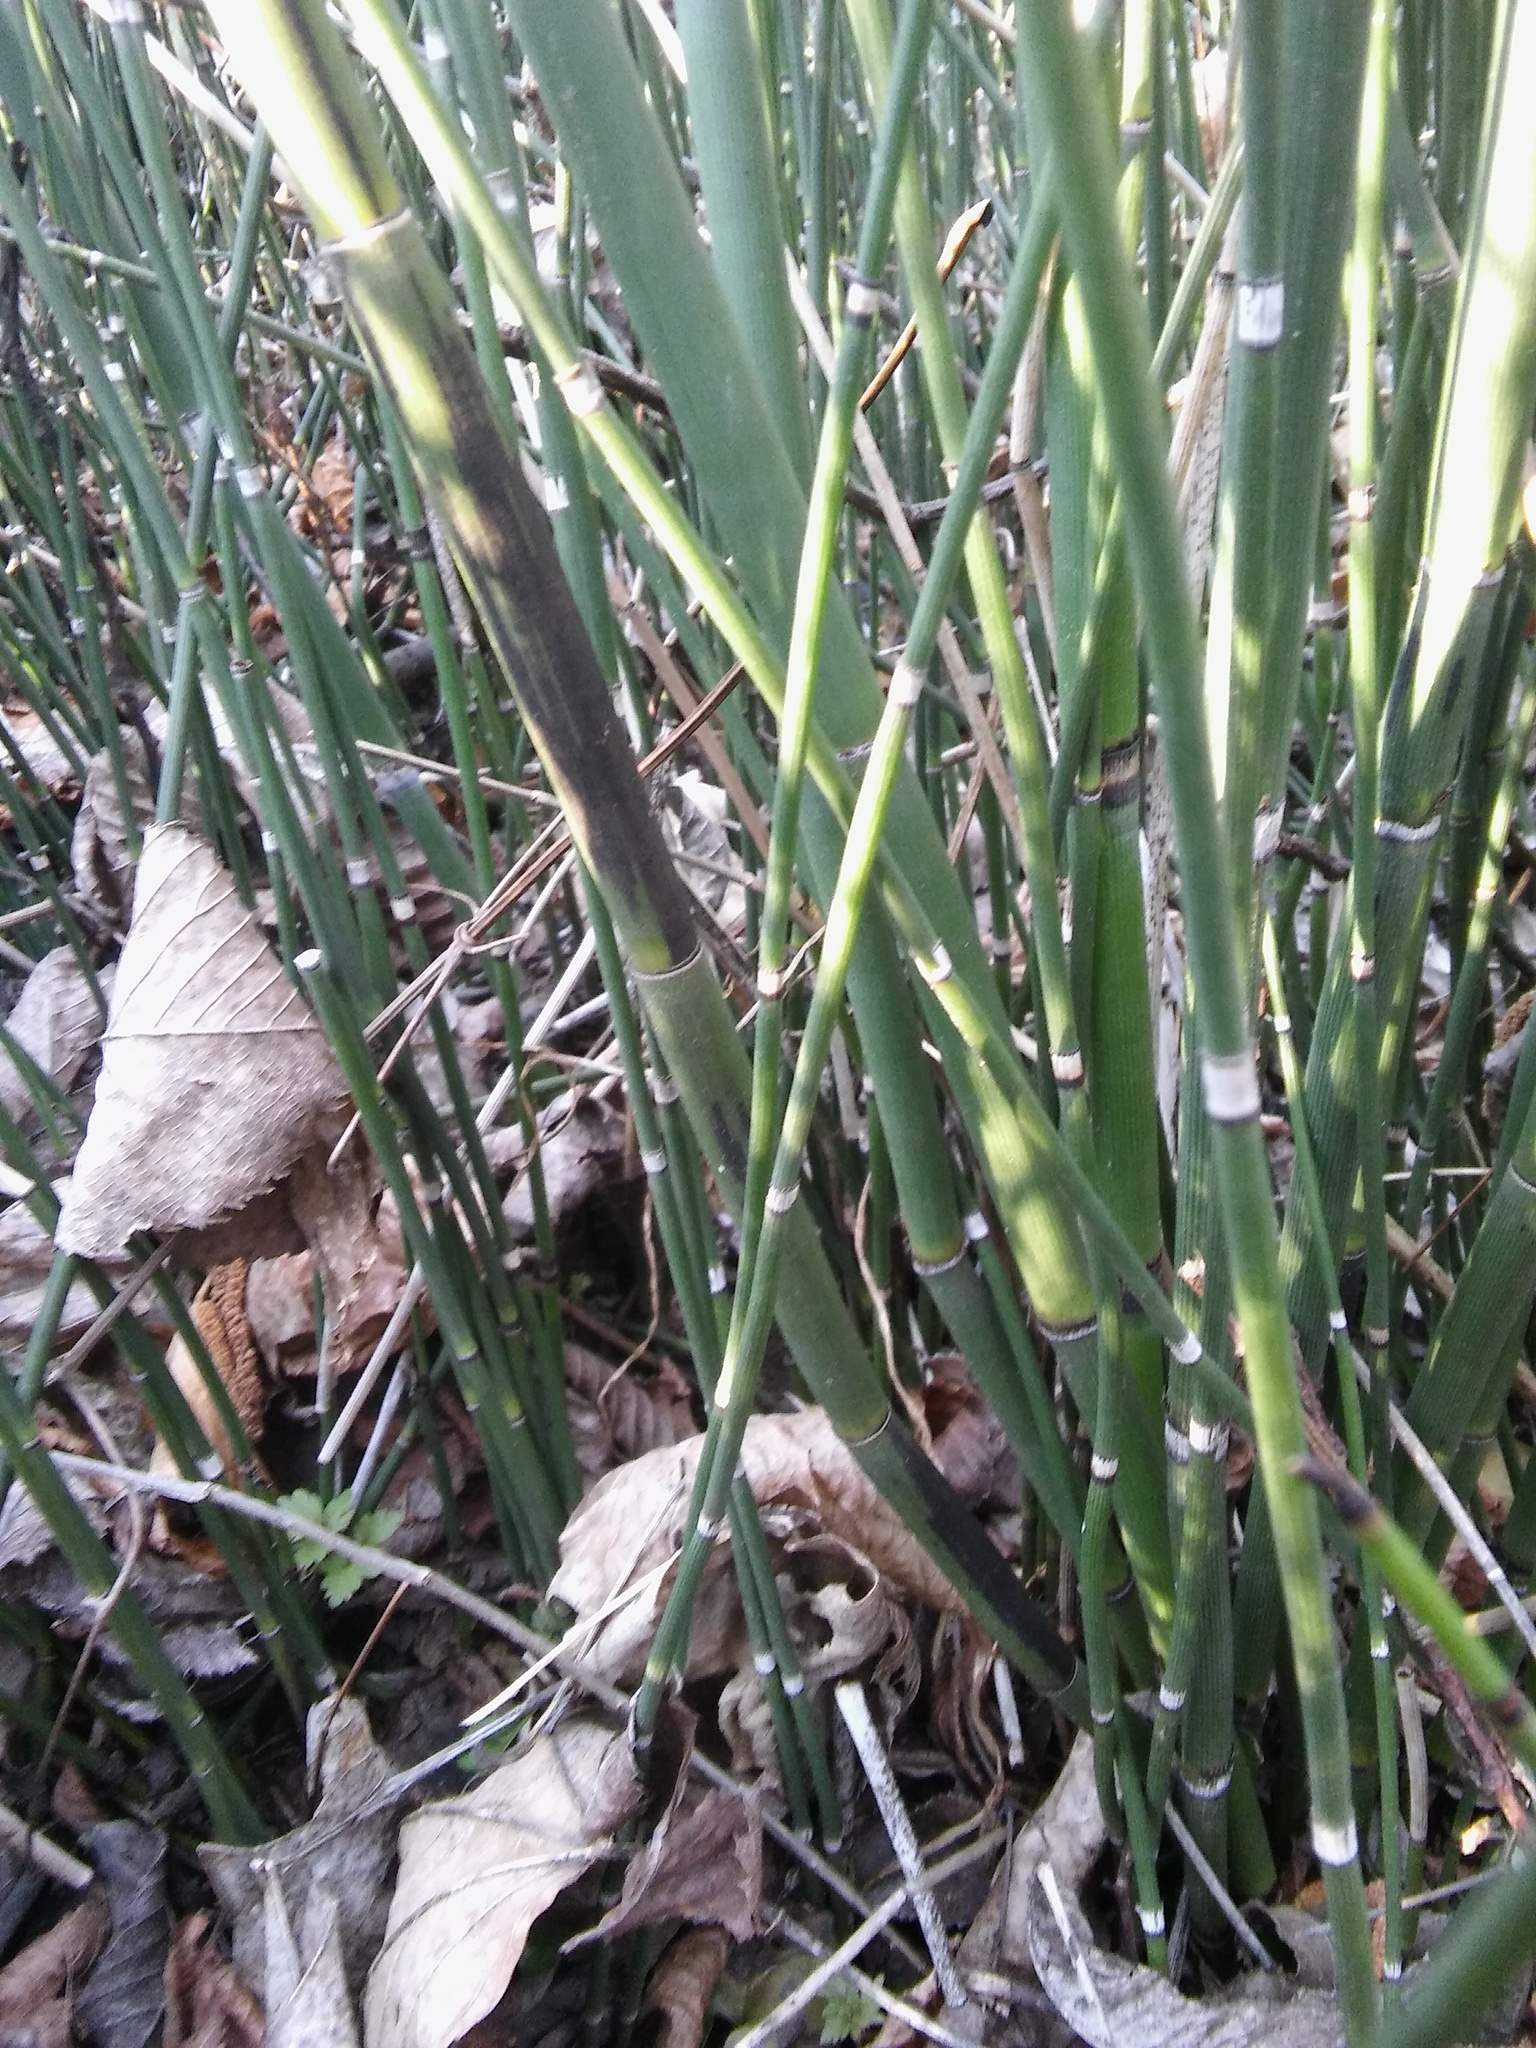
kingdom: Fungi
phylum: Ascomycota
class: Leotiomycetes
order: Helotiales
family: Helotiaceae
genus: Stamnaria
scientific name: Stamnaria americana
